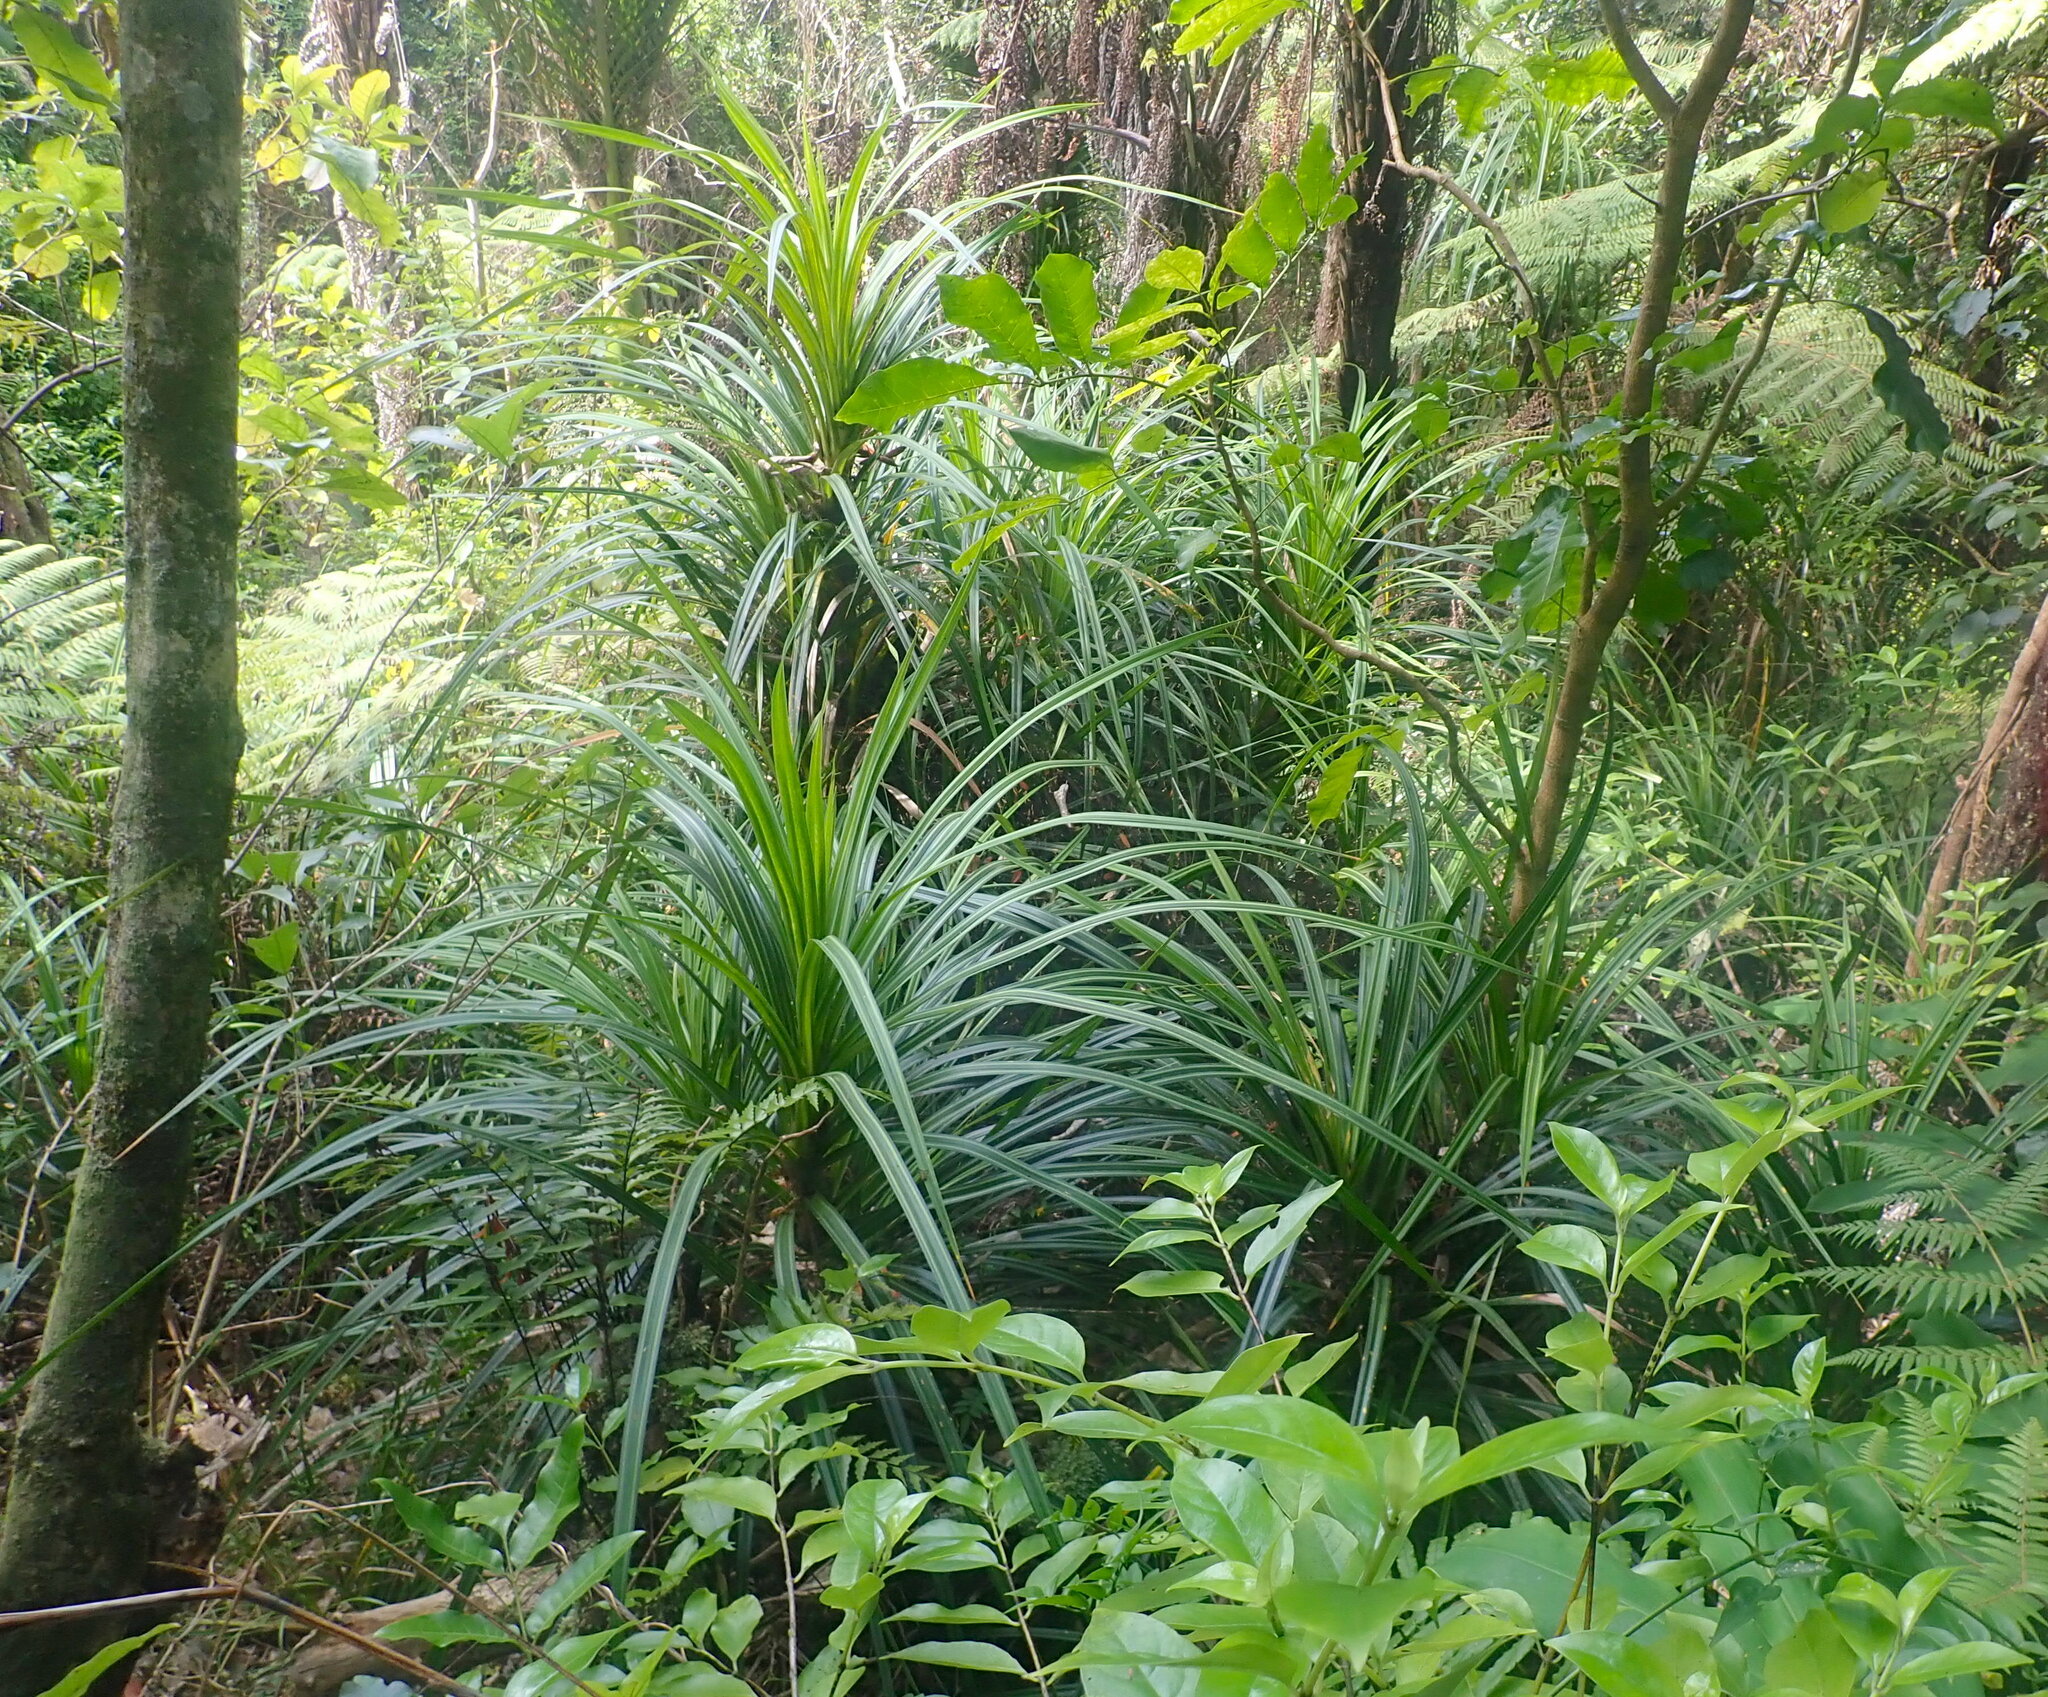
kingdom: Plantae
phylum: Tracheophyta
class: Liliopsida
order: Pandanales
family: Pandanaceae
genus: Freycinetia
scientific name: Freycinetia banksii
